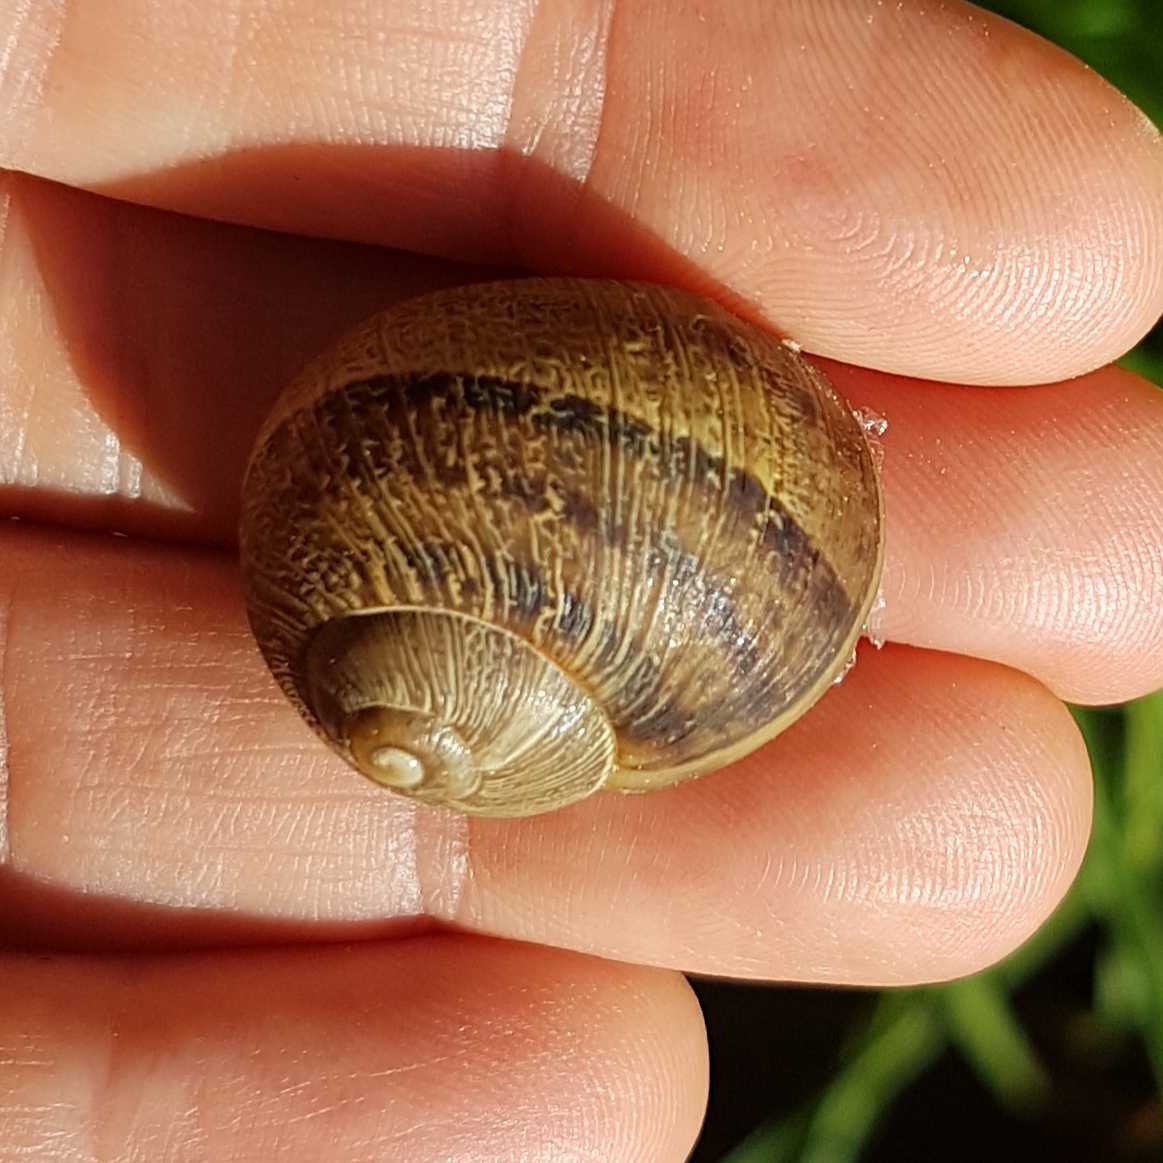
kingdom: Animalia
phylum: Mollusca
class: Gastropoda
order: Stylommatophora
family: Helicidae
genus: Cornu
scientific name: Cornu aspersum
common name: Brown garden snail
